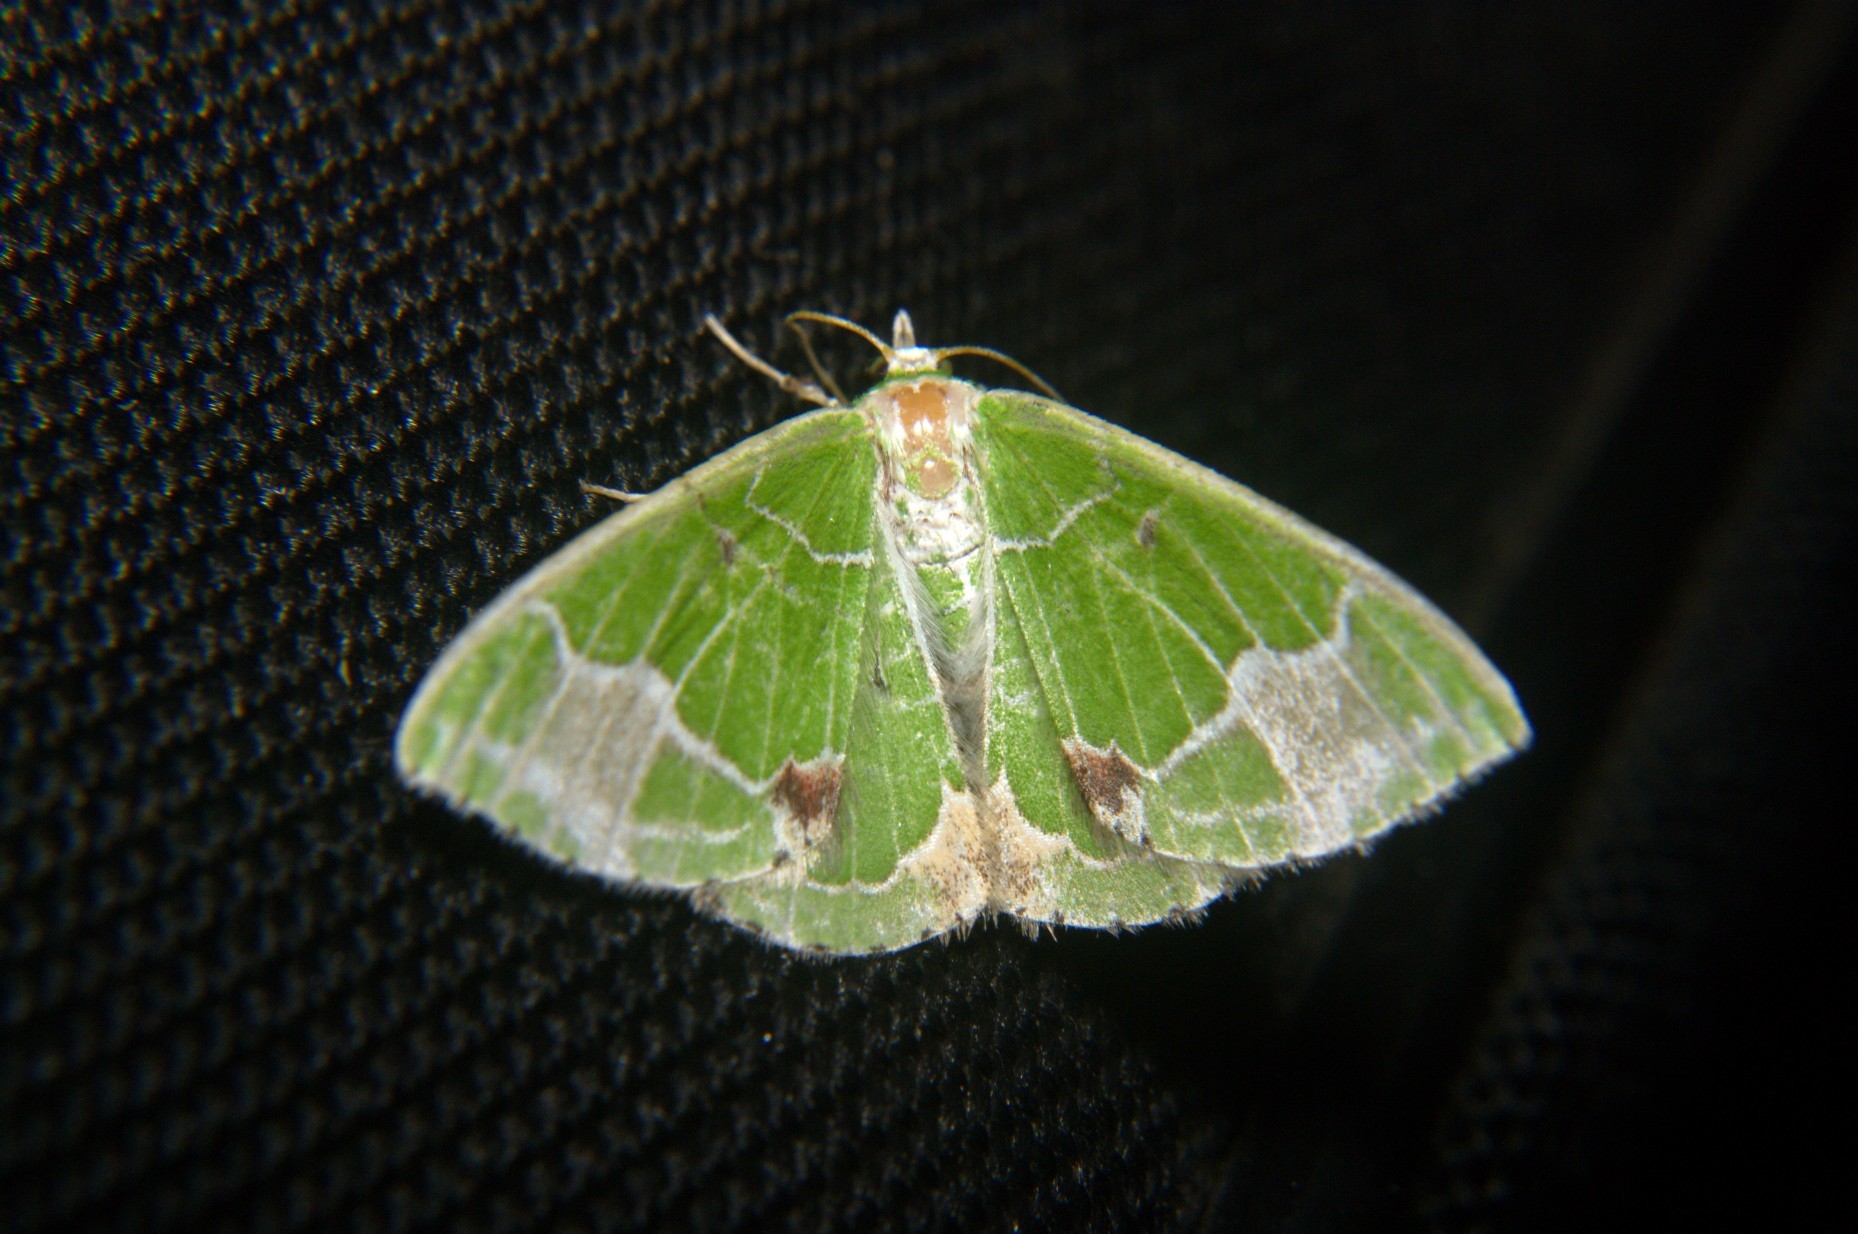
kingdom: Animalia
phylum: Arthropoda
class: Insecta
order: Lepidoptera
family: Geometridae
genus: Comibaena
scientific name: Comibaena albimarginata
